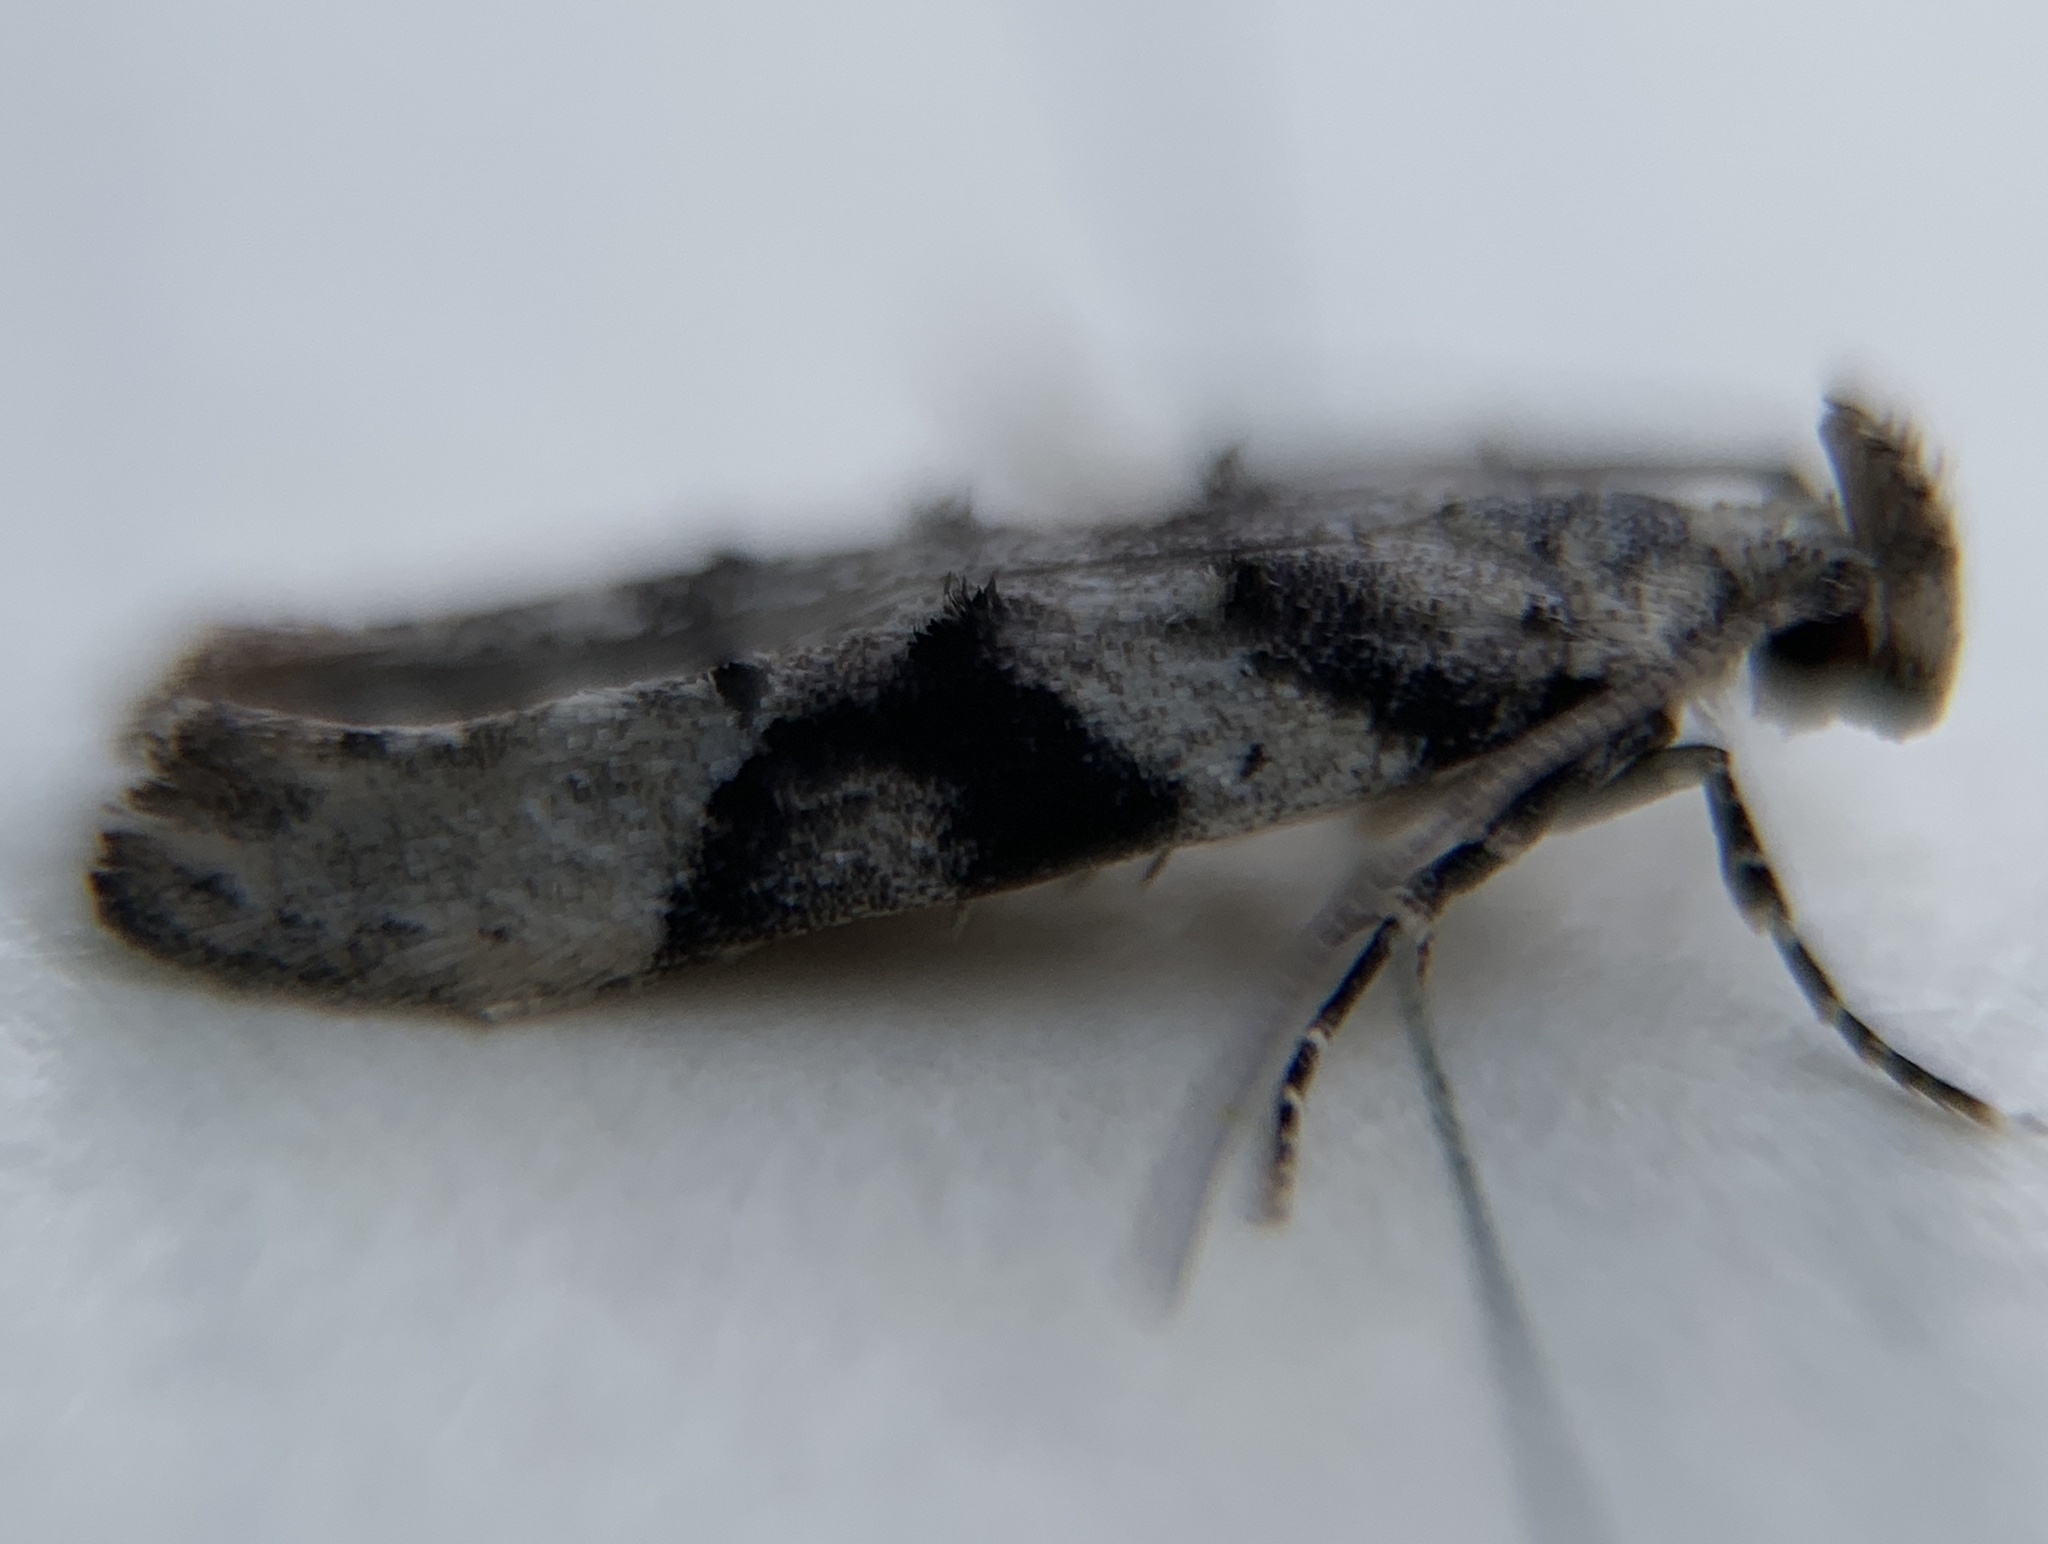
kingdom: Animalia
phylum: Arthropoda
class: Insecta
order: Lepidoptera
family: Gelechiidae
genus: Coleotechnites
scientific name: Coleotechnites atrupictella
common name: Spruce micromoth
